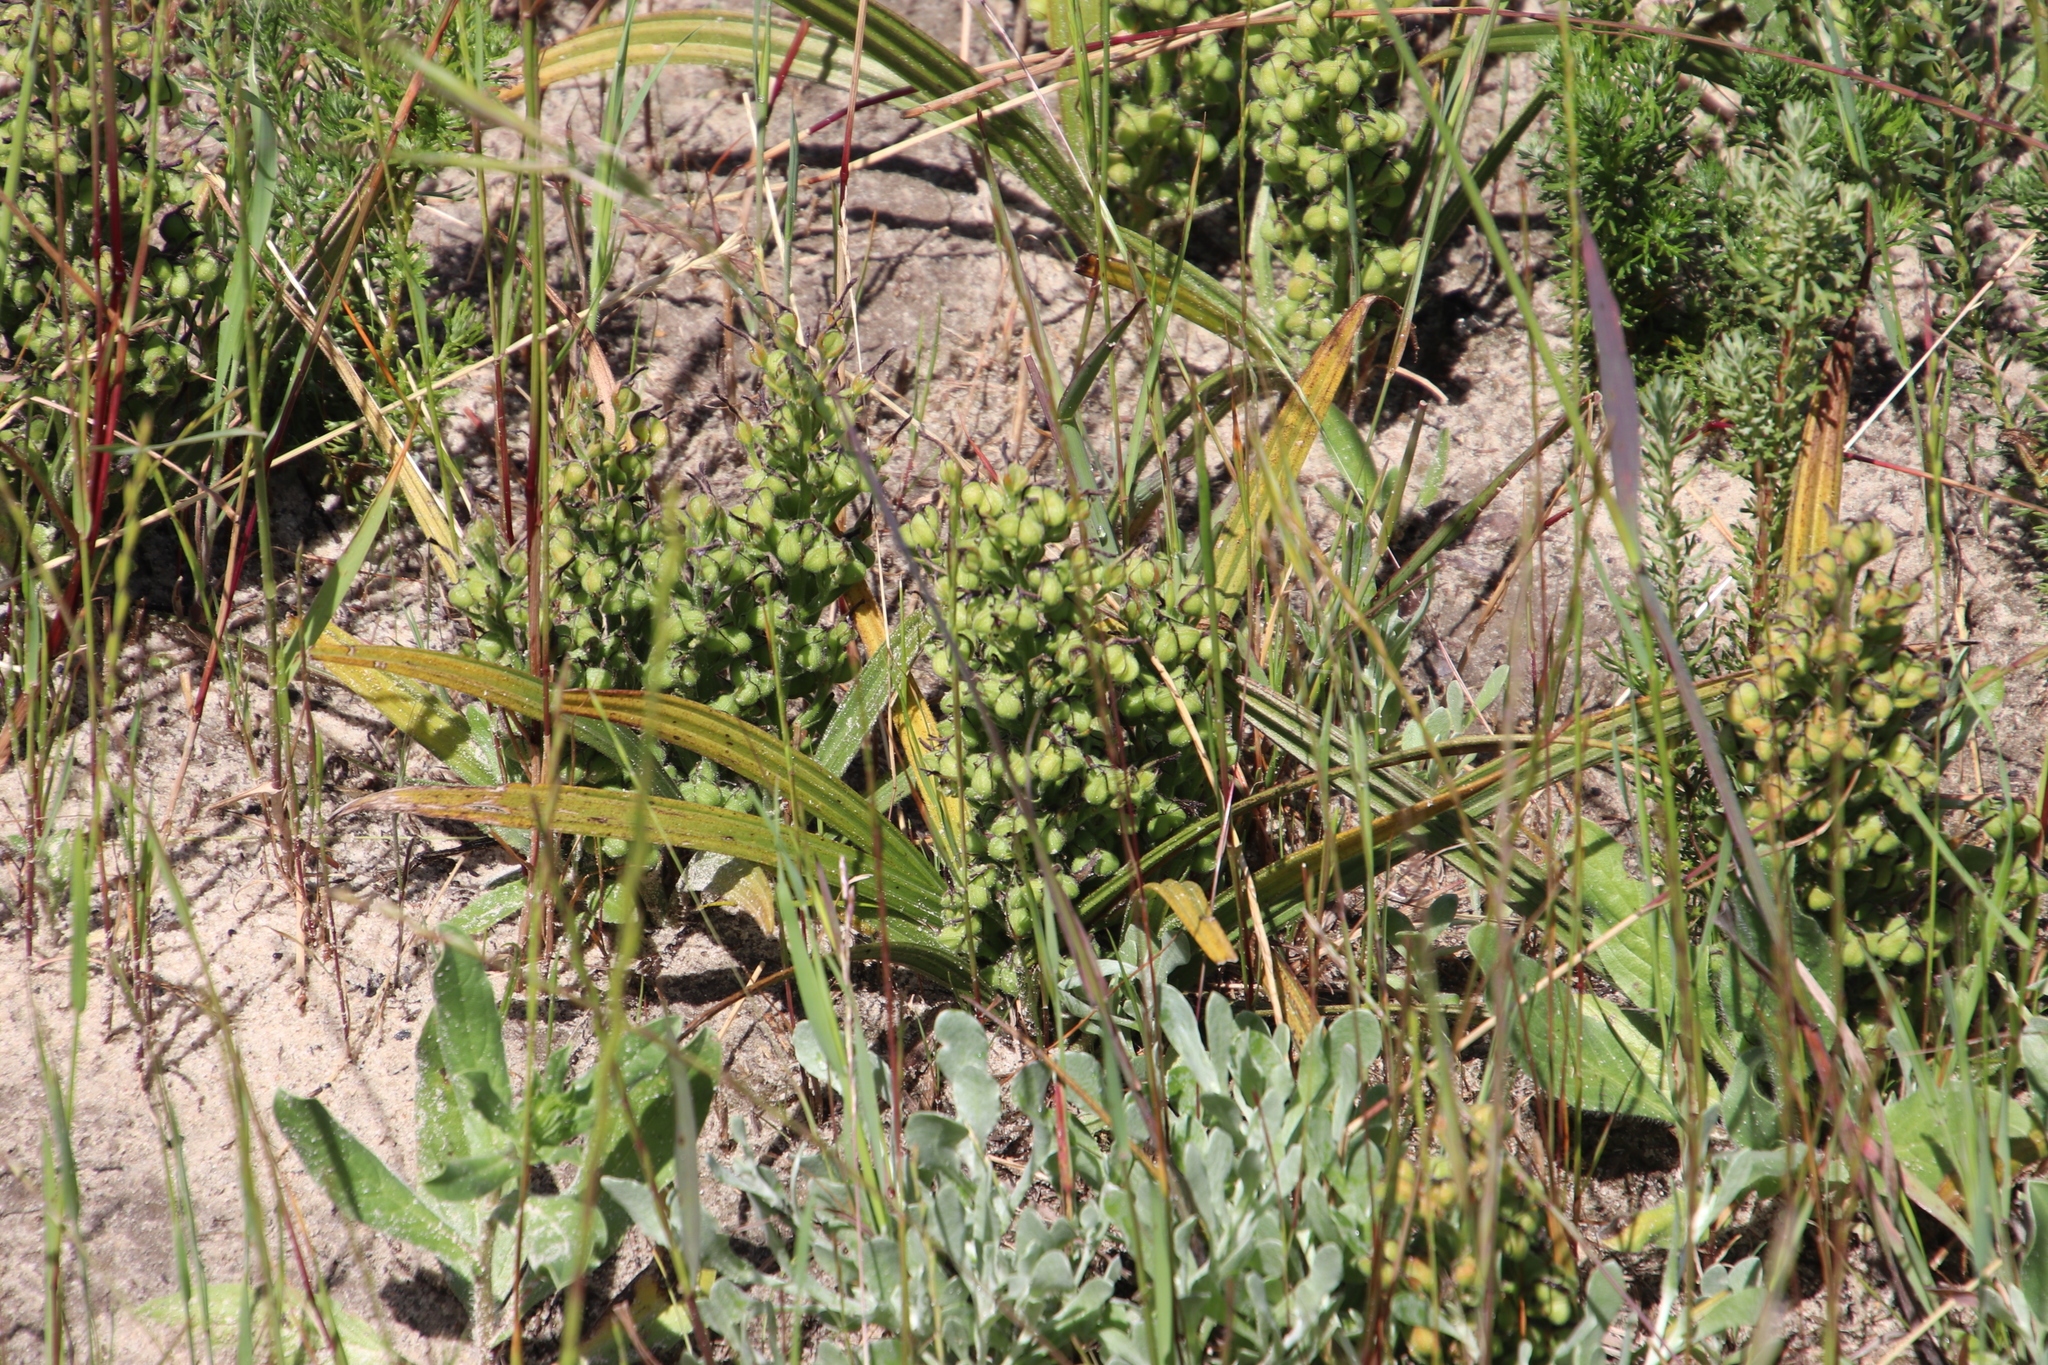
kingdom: Plantae
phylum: Tracheophyta
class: Liliopsida
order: Commelinales
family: Haemodoraceae
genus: Wachendorfia
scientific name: Wachendorfia multiflora
